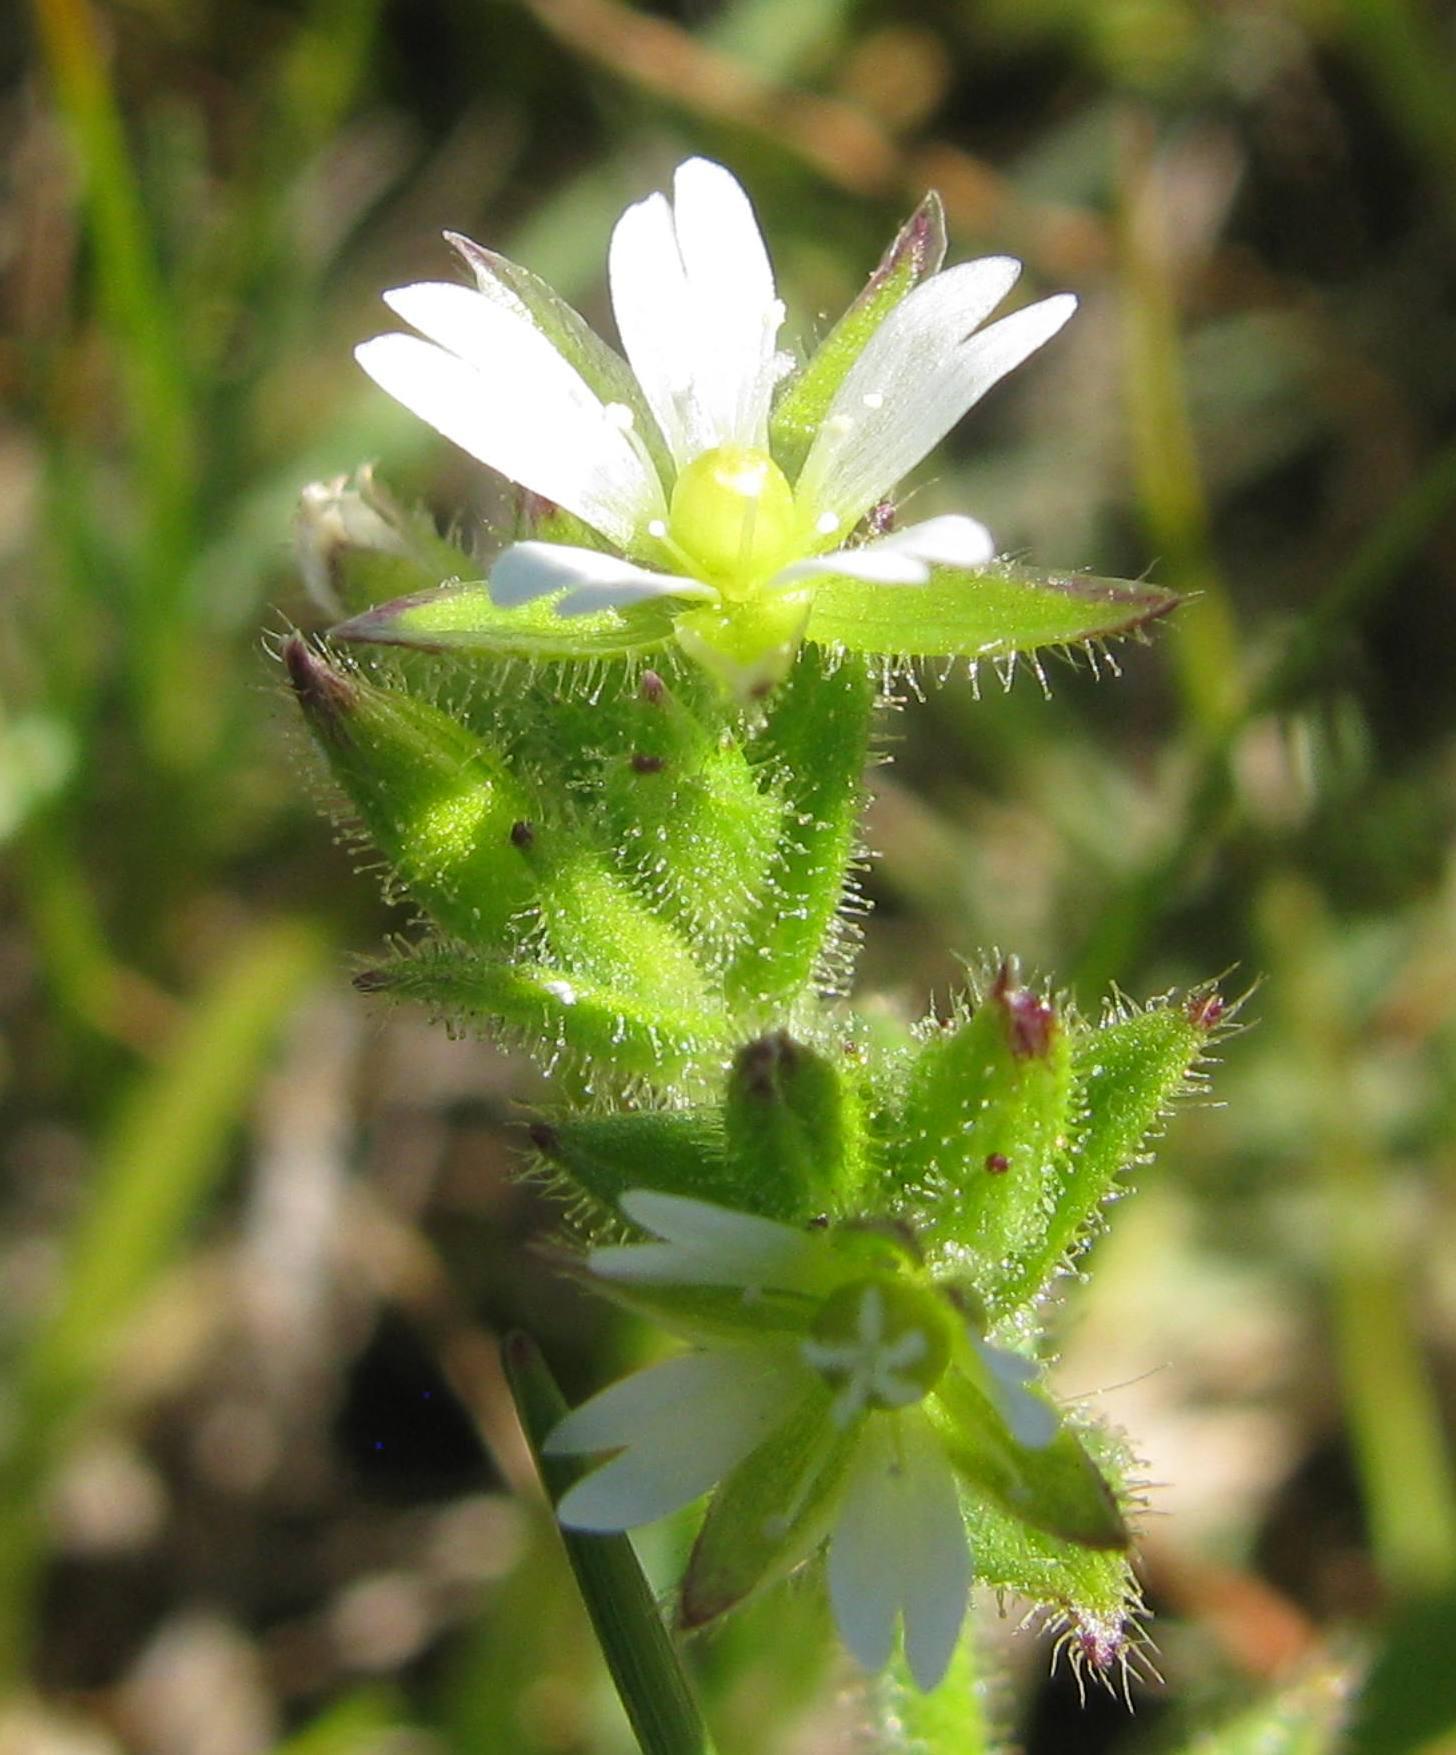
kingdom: Plantae
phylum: Tracheophyta
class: Magnoliopsida
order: Caryophyllales
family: Caryophyllaceae
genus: Cerastium
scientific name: Cerastium capense
